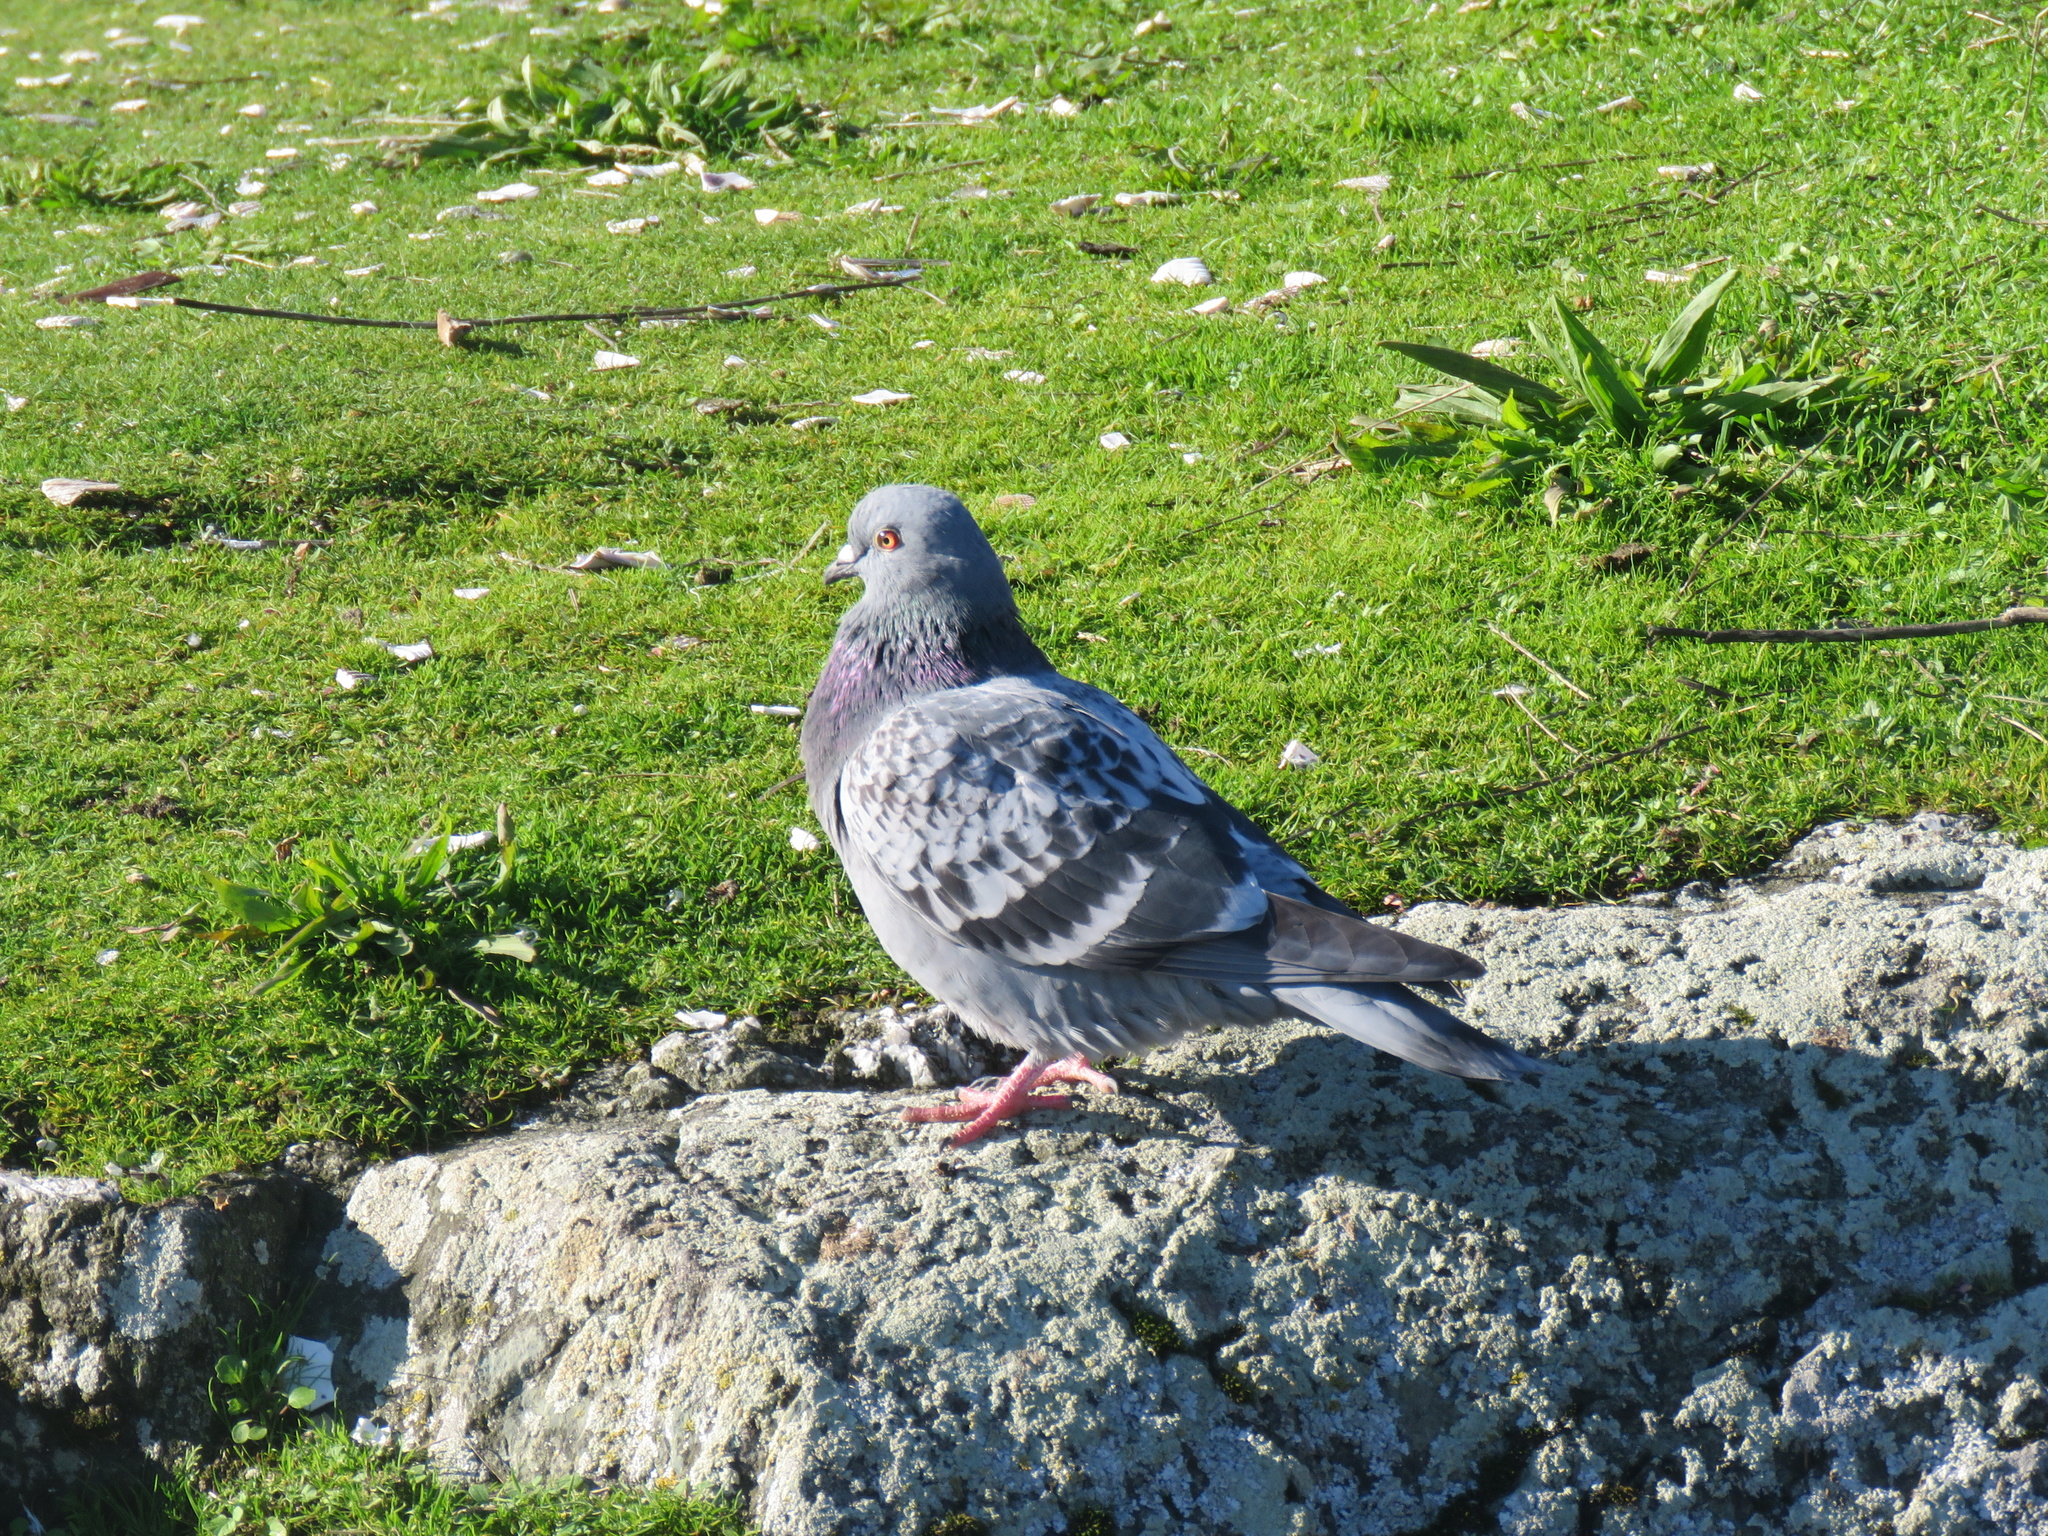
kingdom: Animalia
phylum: Chordata
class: Aves
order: Columbiformes
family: Columbidae
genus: Columba
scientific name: Columba livia
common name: Rock pigeon
